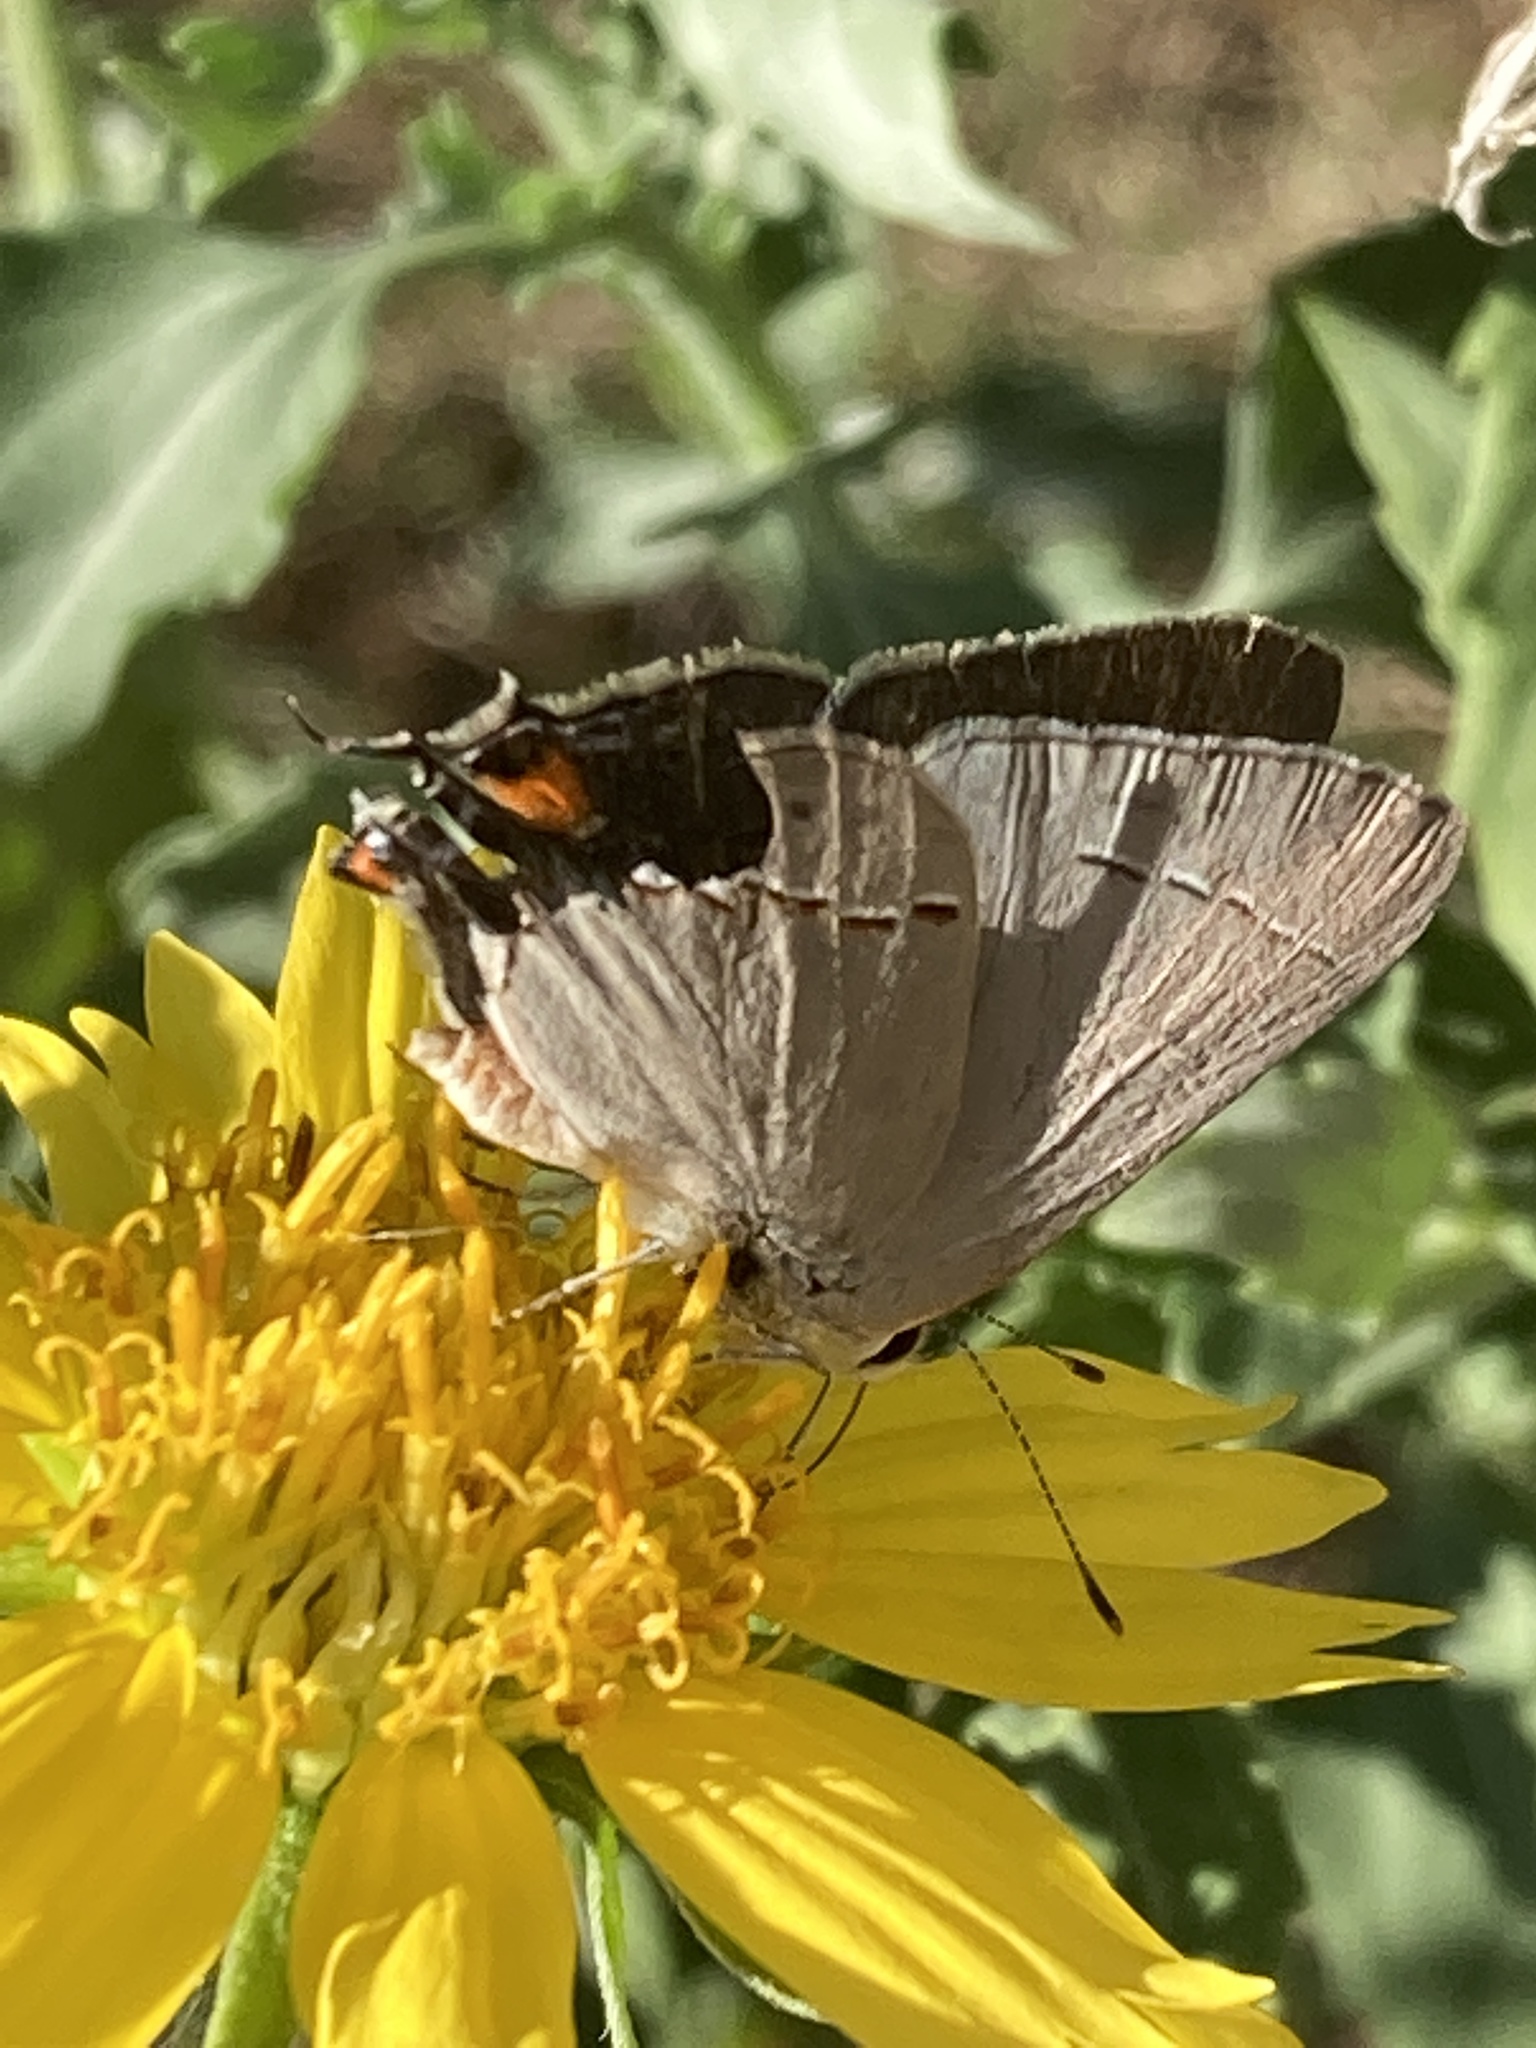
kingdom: Animalia
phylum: Arthropoda
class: Insecta
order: Lepidoptera
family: Lycaenidae
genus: Strymon
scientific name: Strymon melinus
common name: Gray hairstreak
